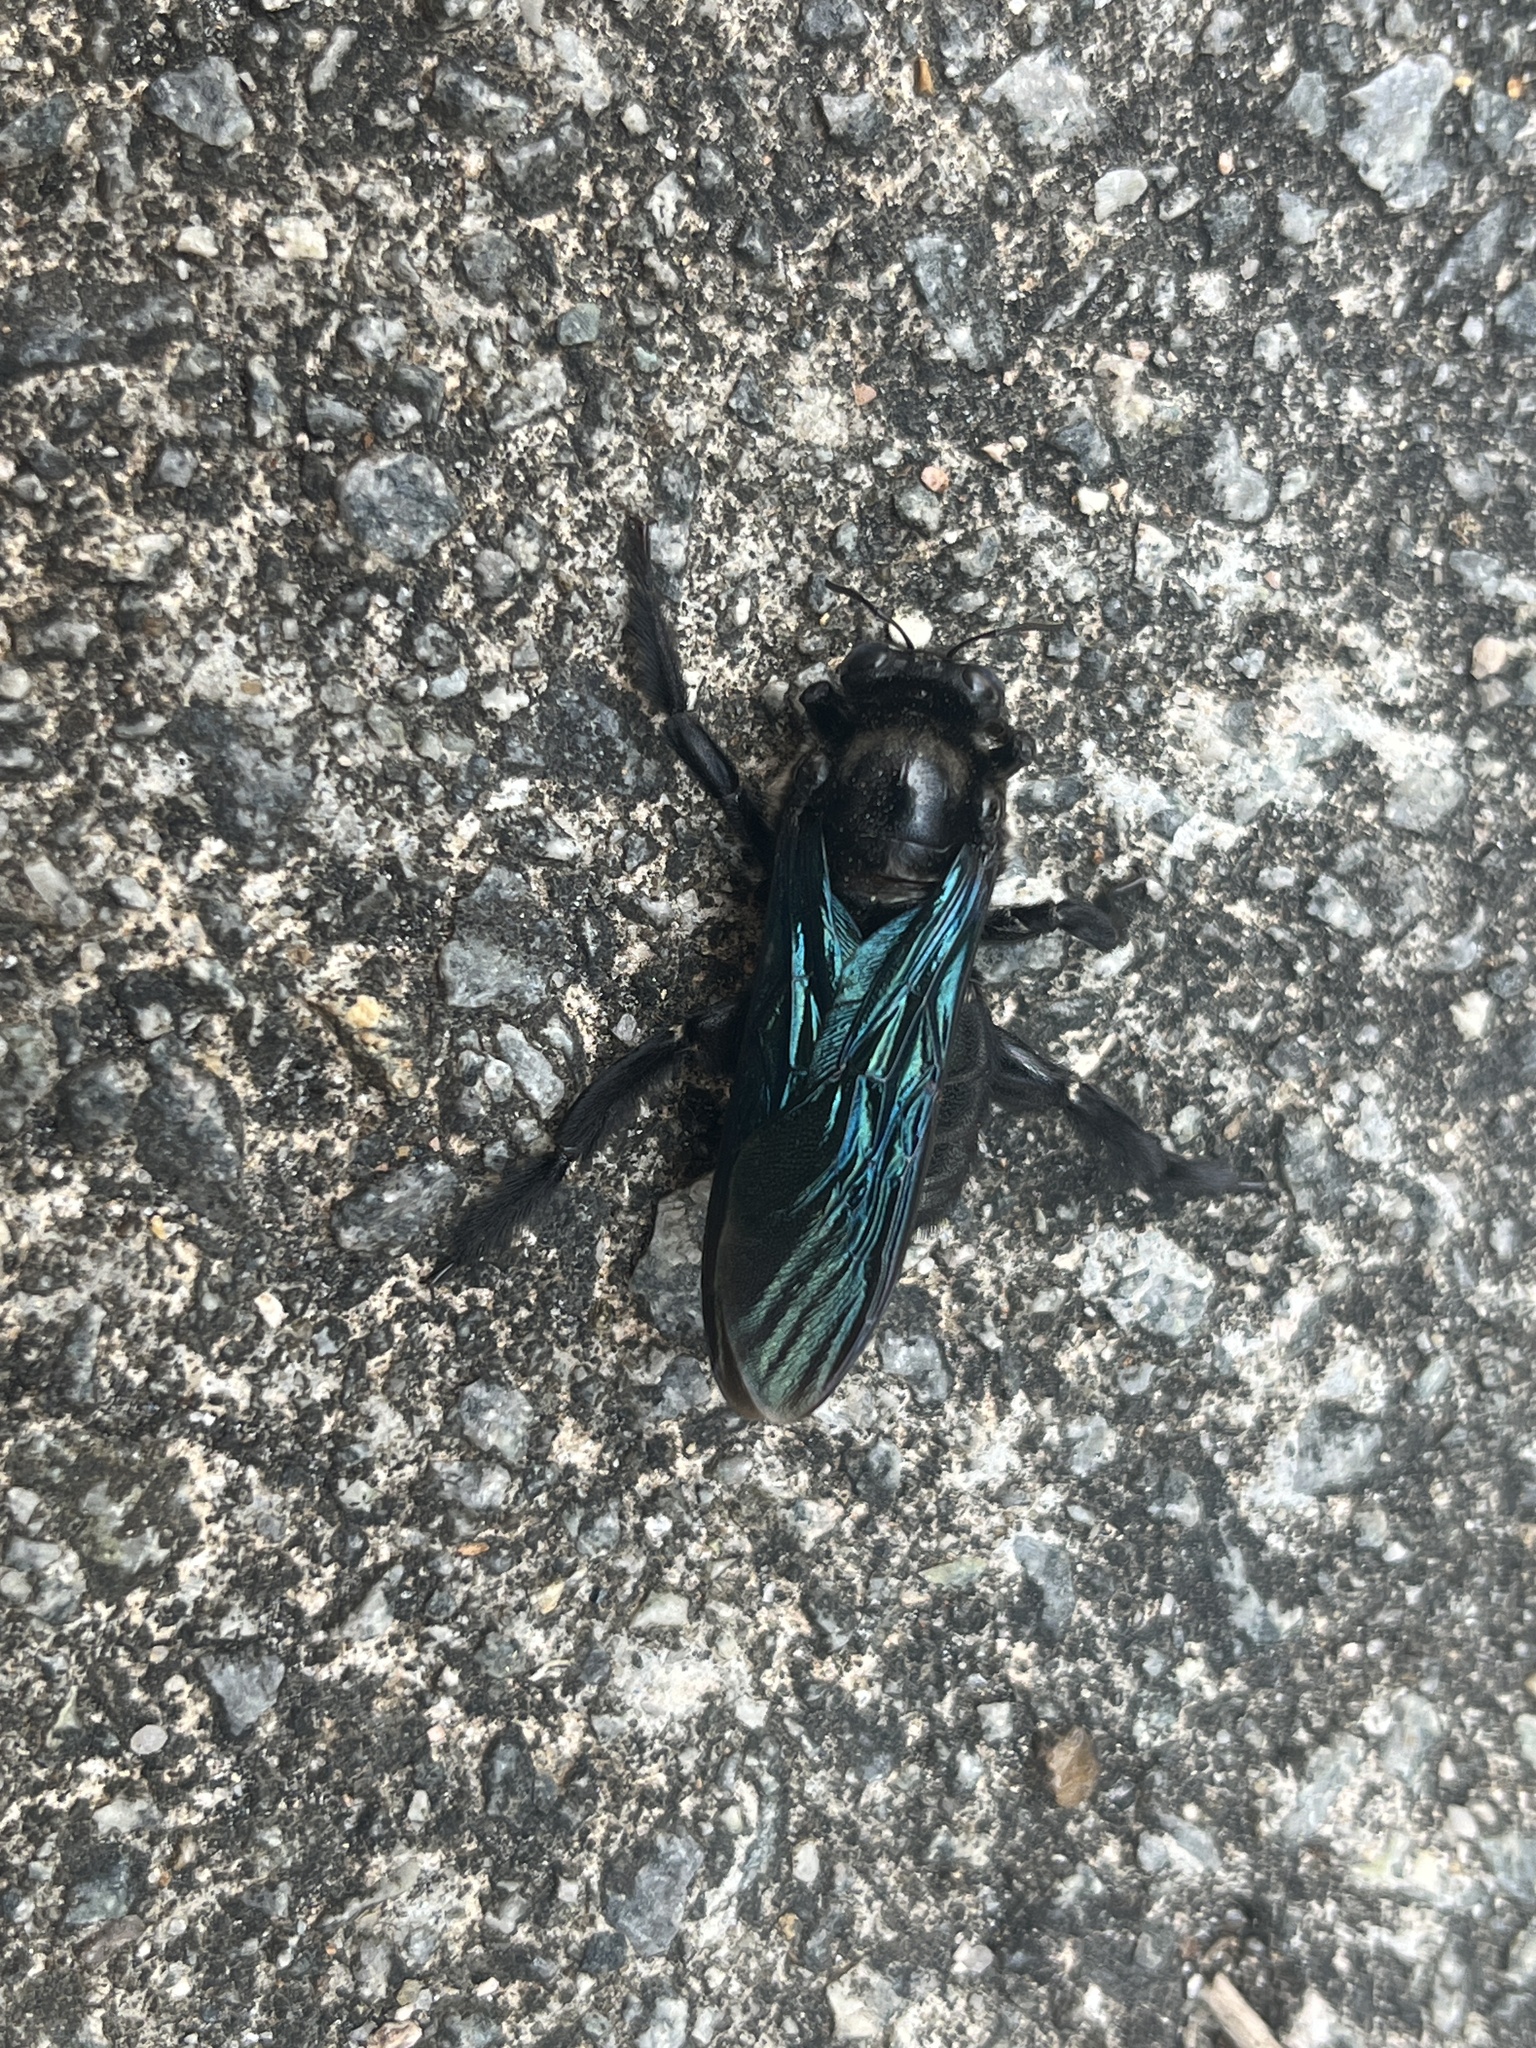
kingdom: Animalia
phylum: Arthropoda
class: Insecta
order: Hymenoptera
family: Apidae
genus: Xylocopa
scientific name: Xylocopa nasalis
